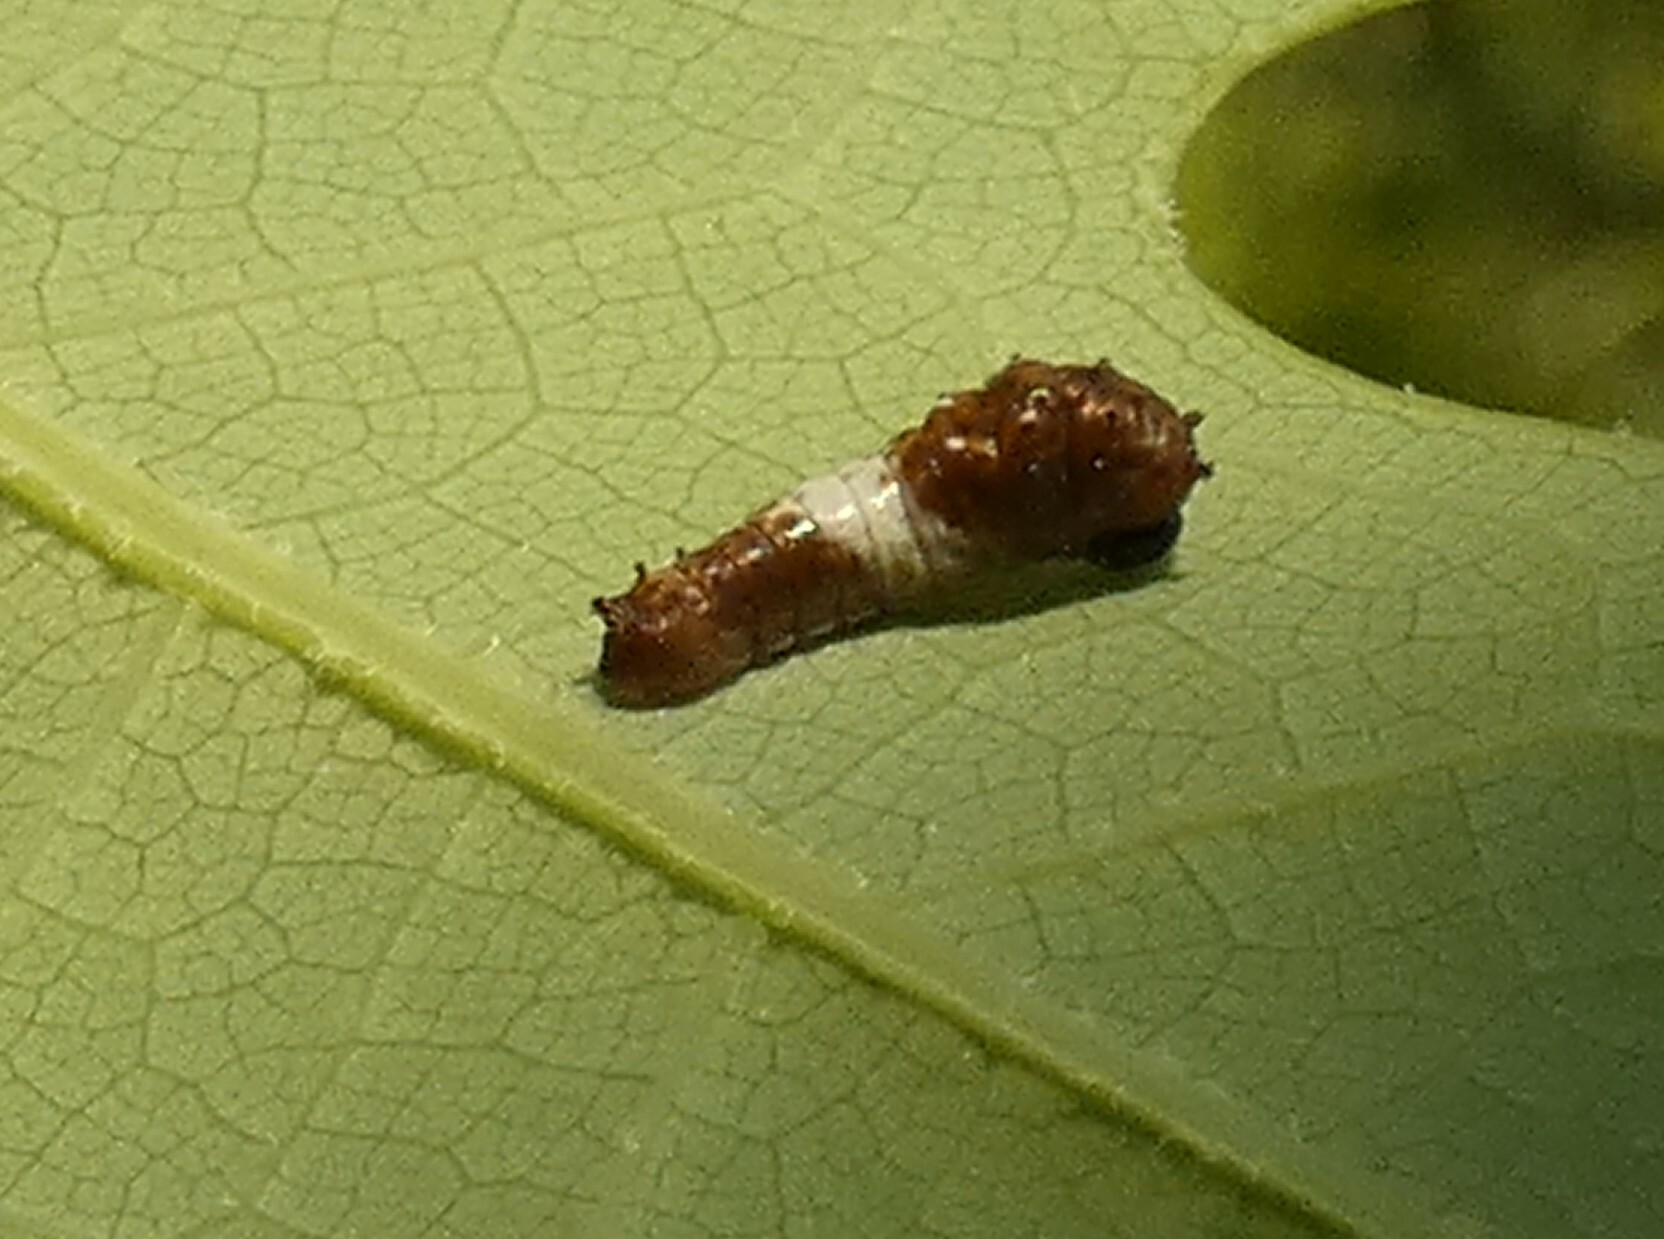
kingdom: Animalia
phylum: Arthropoda
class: Insecta
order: Lepidoptera
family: Papilionidae
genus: Papilio
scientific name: Papilio glaucus
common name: Tiger swallowtail
